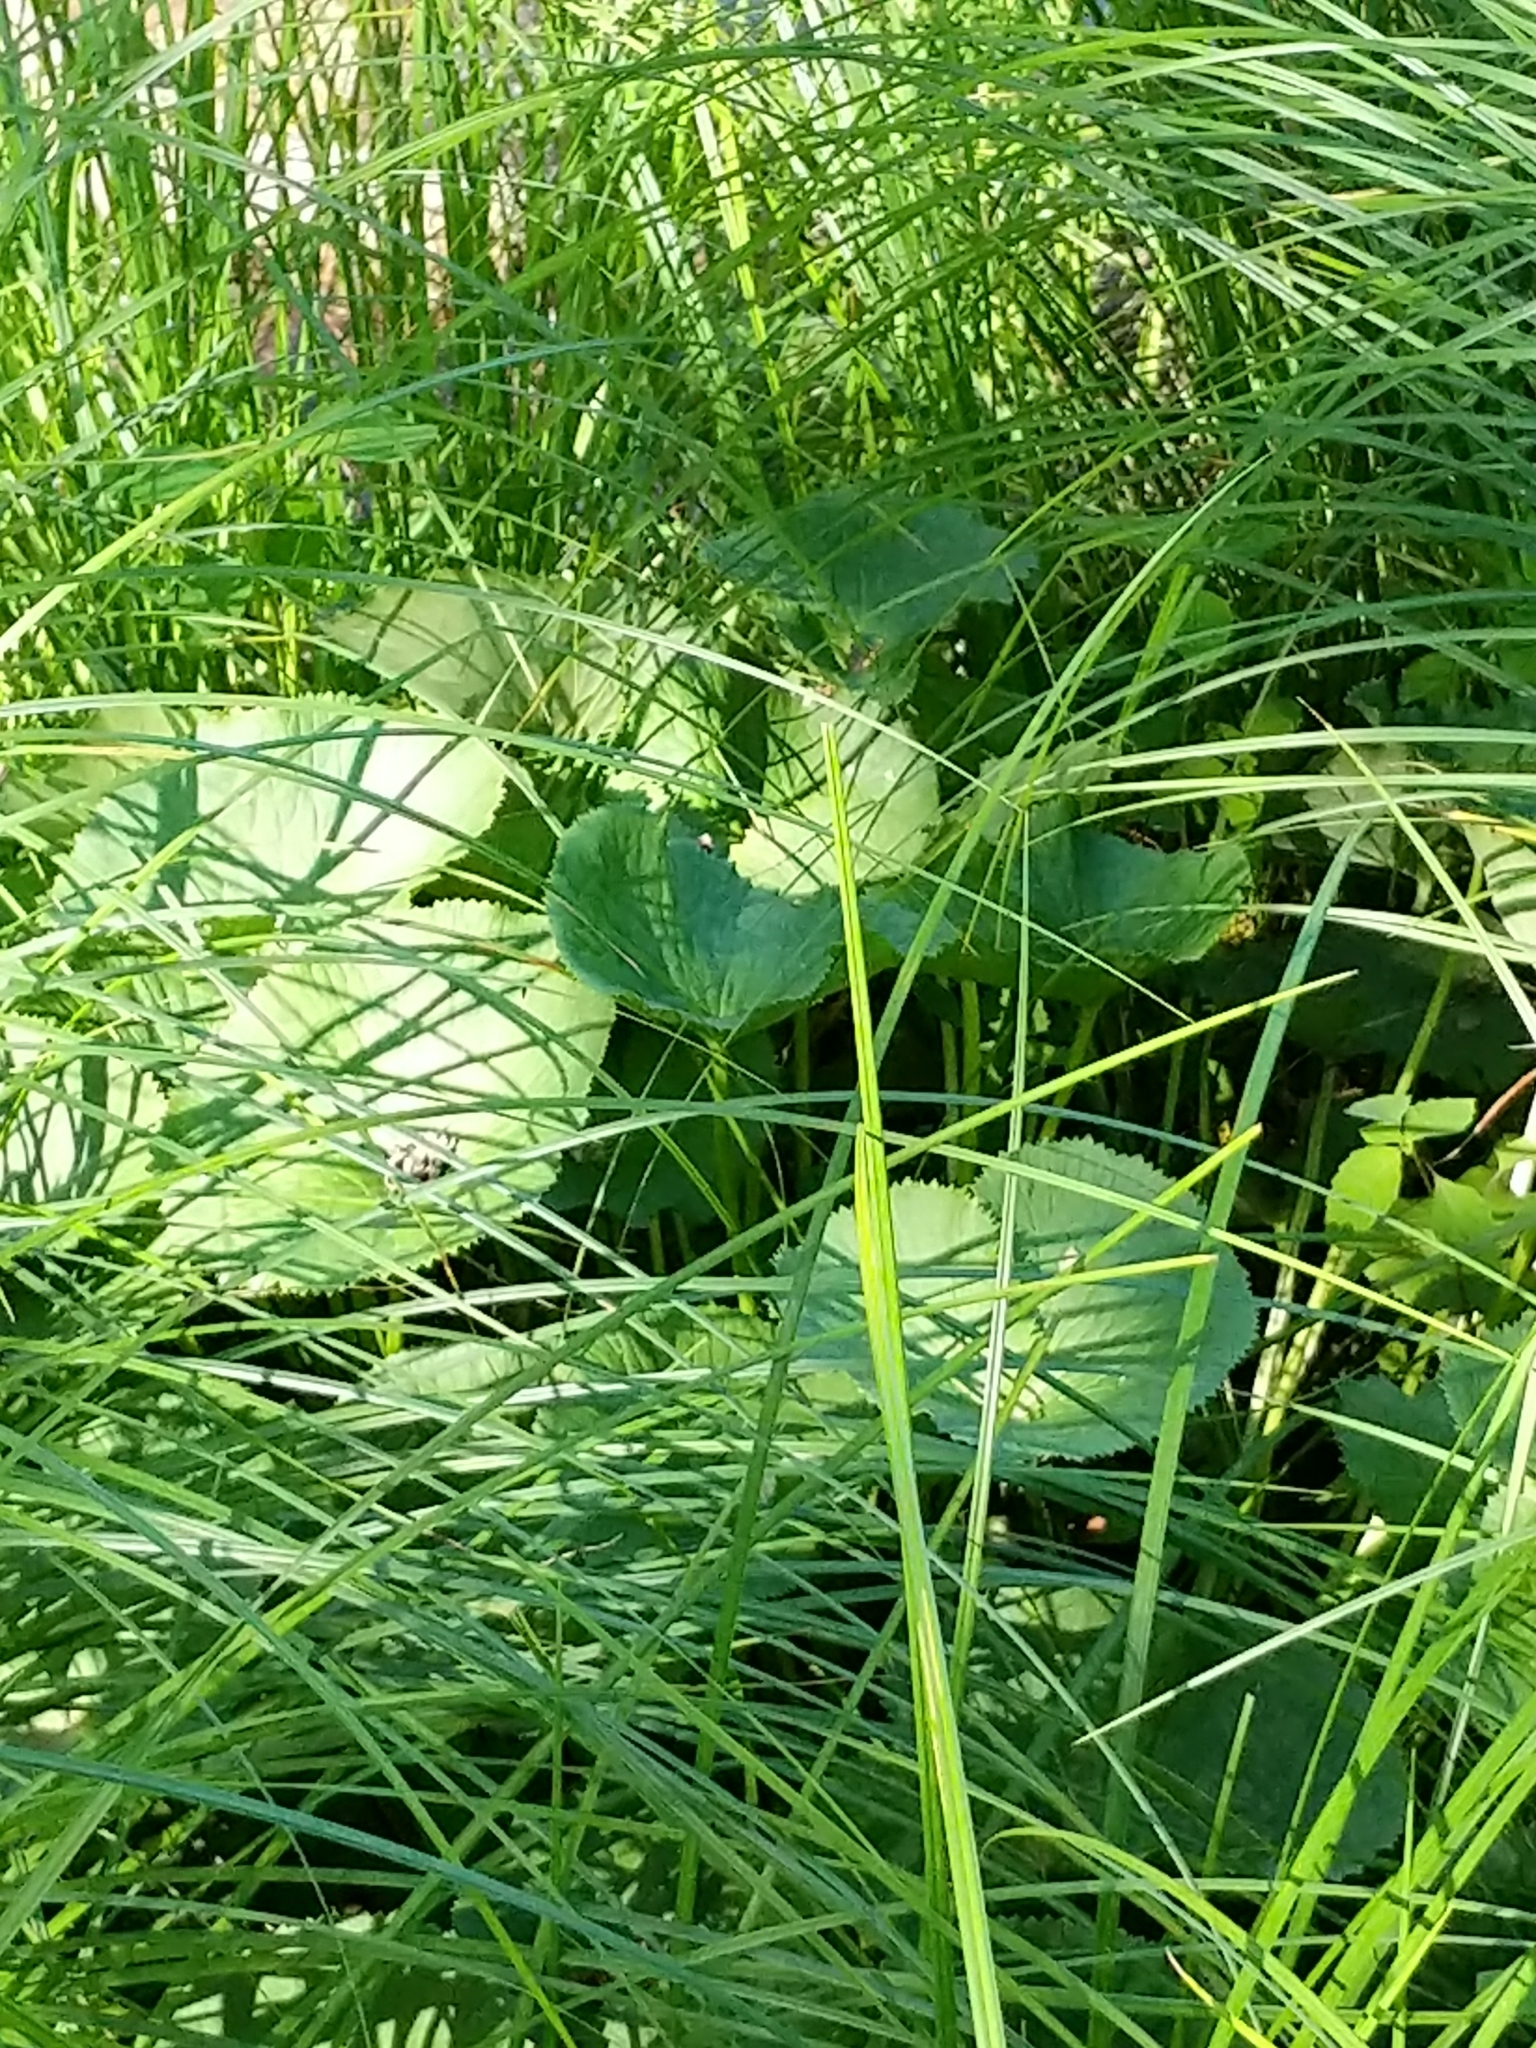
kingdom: Plantae
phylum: Tracheophyta
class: Magnoliopsida
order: Ranunculales
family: Ranunculaceae
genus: Caltha
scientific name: Caltha palustris
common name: Marsh marigold
